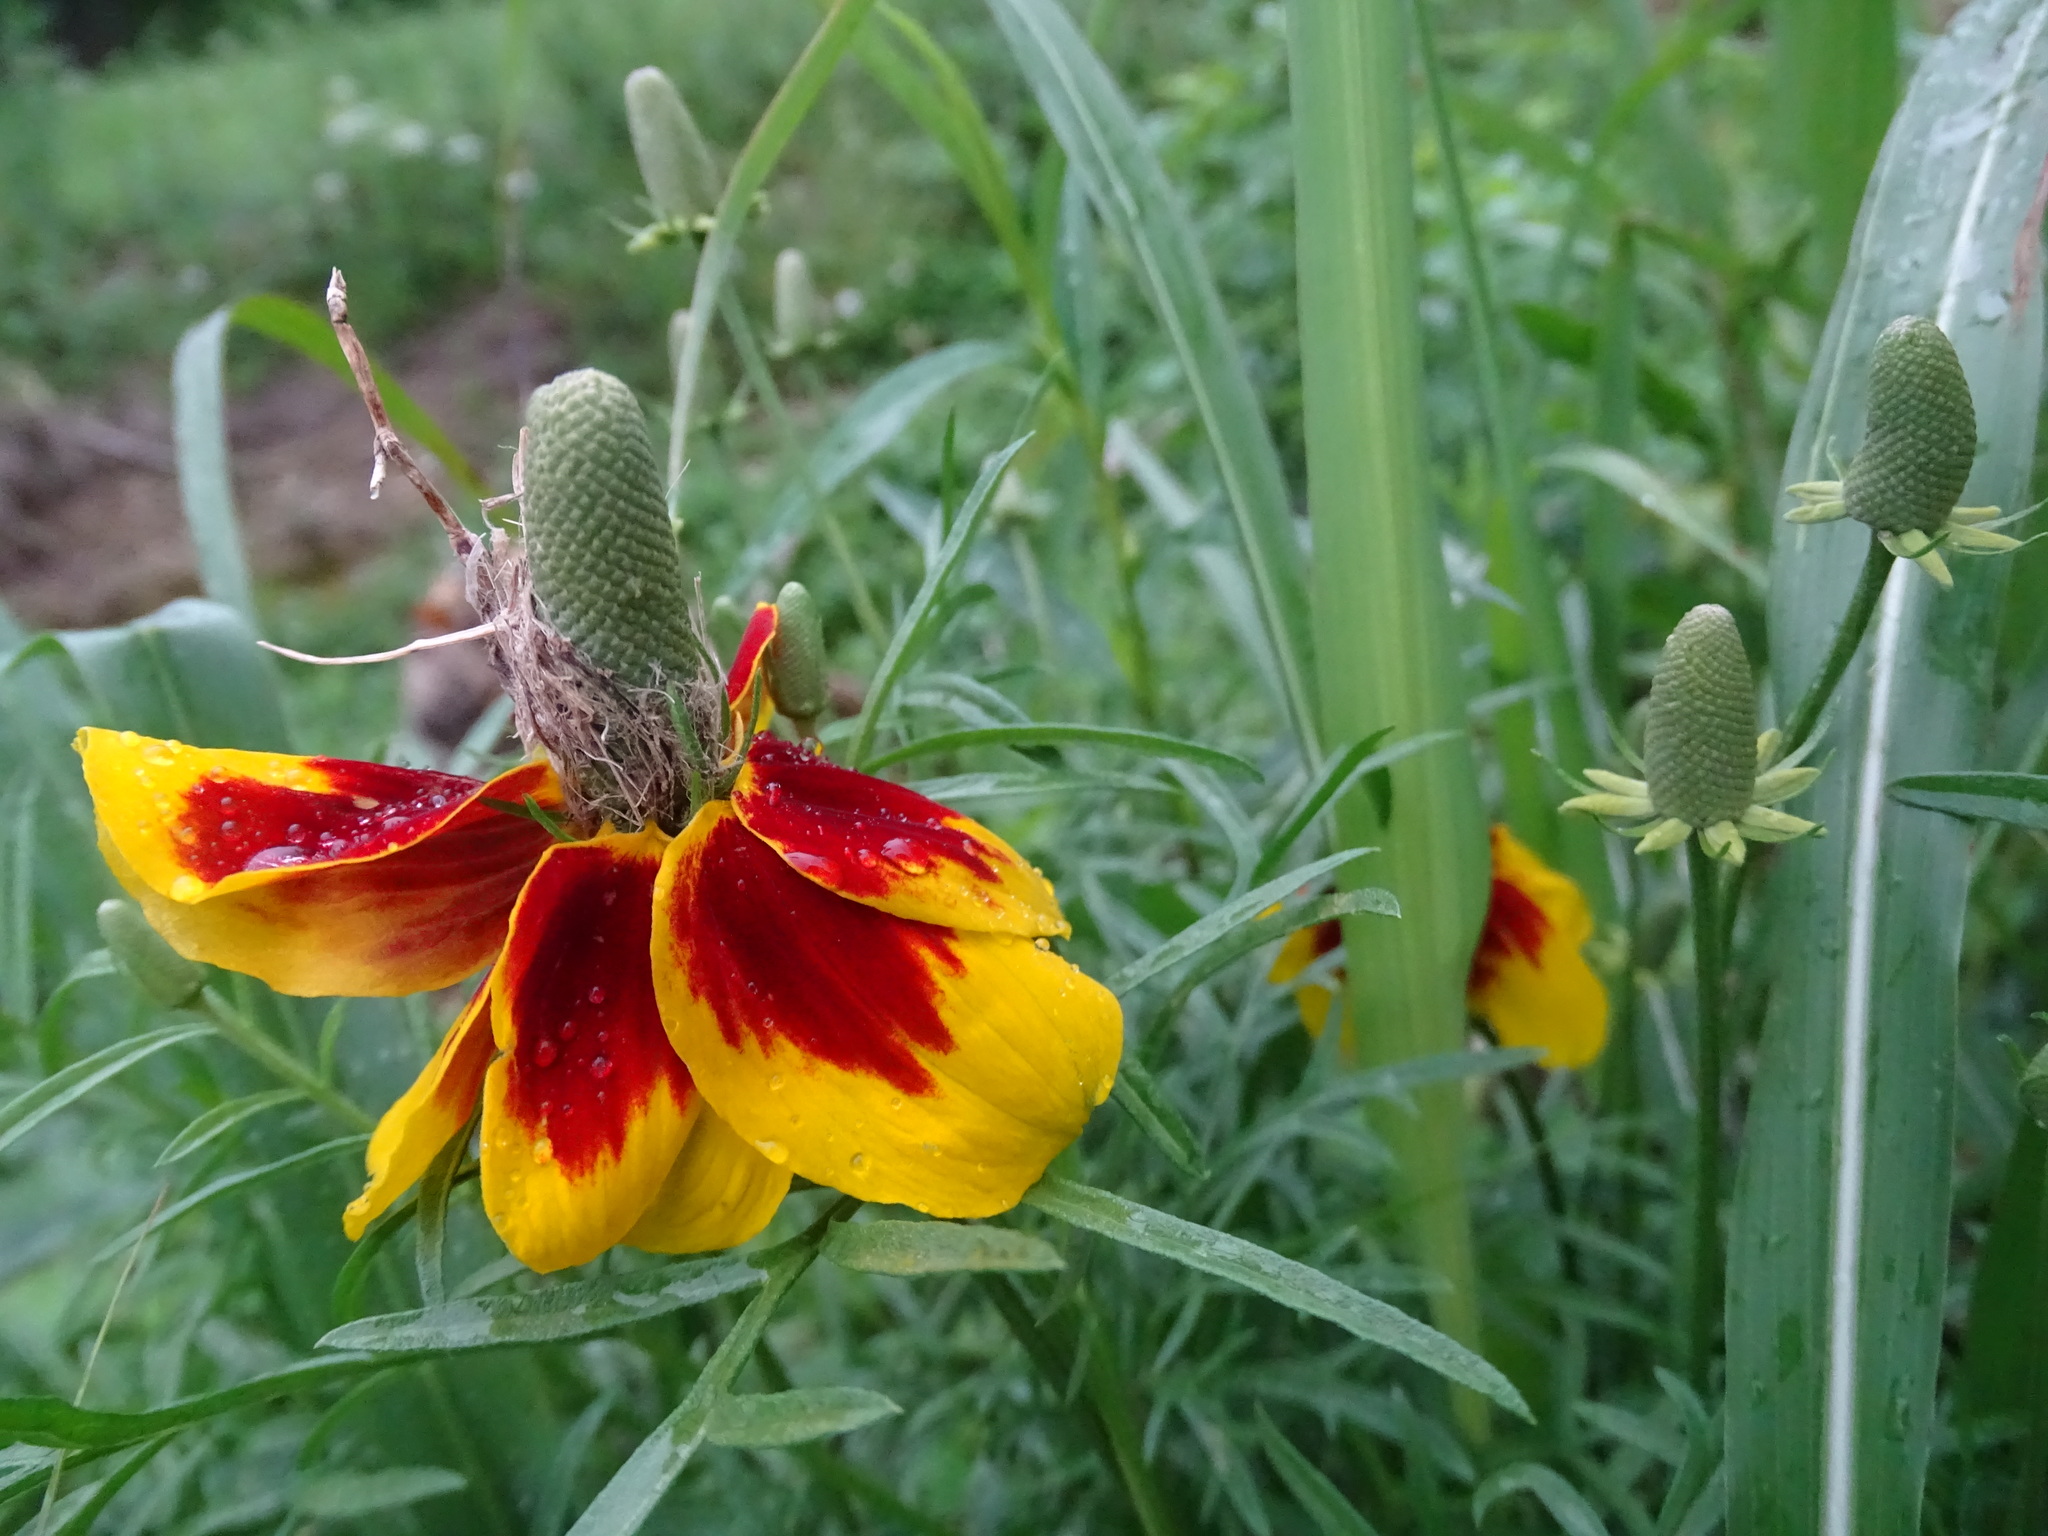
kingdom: Plantae
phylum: Tracheophyta
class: Magnoliopsida
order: Asterales
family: Asteraceae
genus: Ratibida
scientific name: Ratibida columnifera
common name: Prairie coneflower
